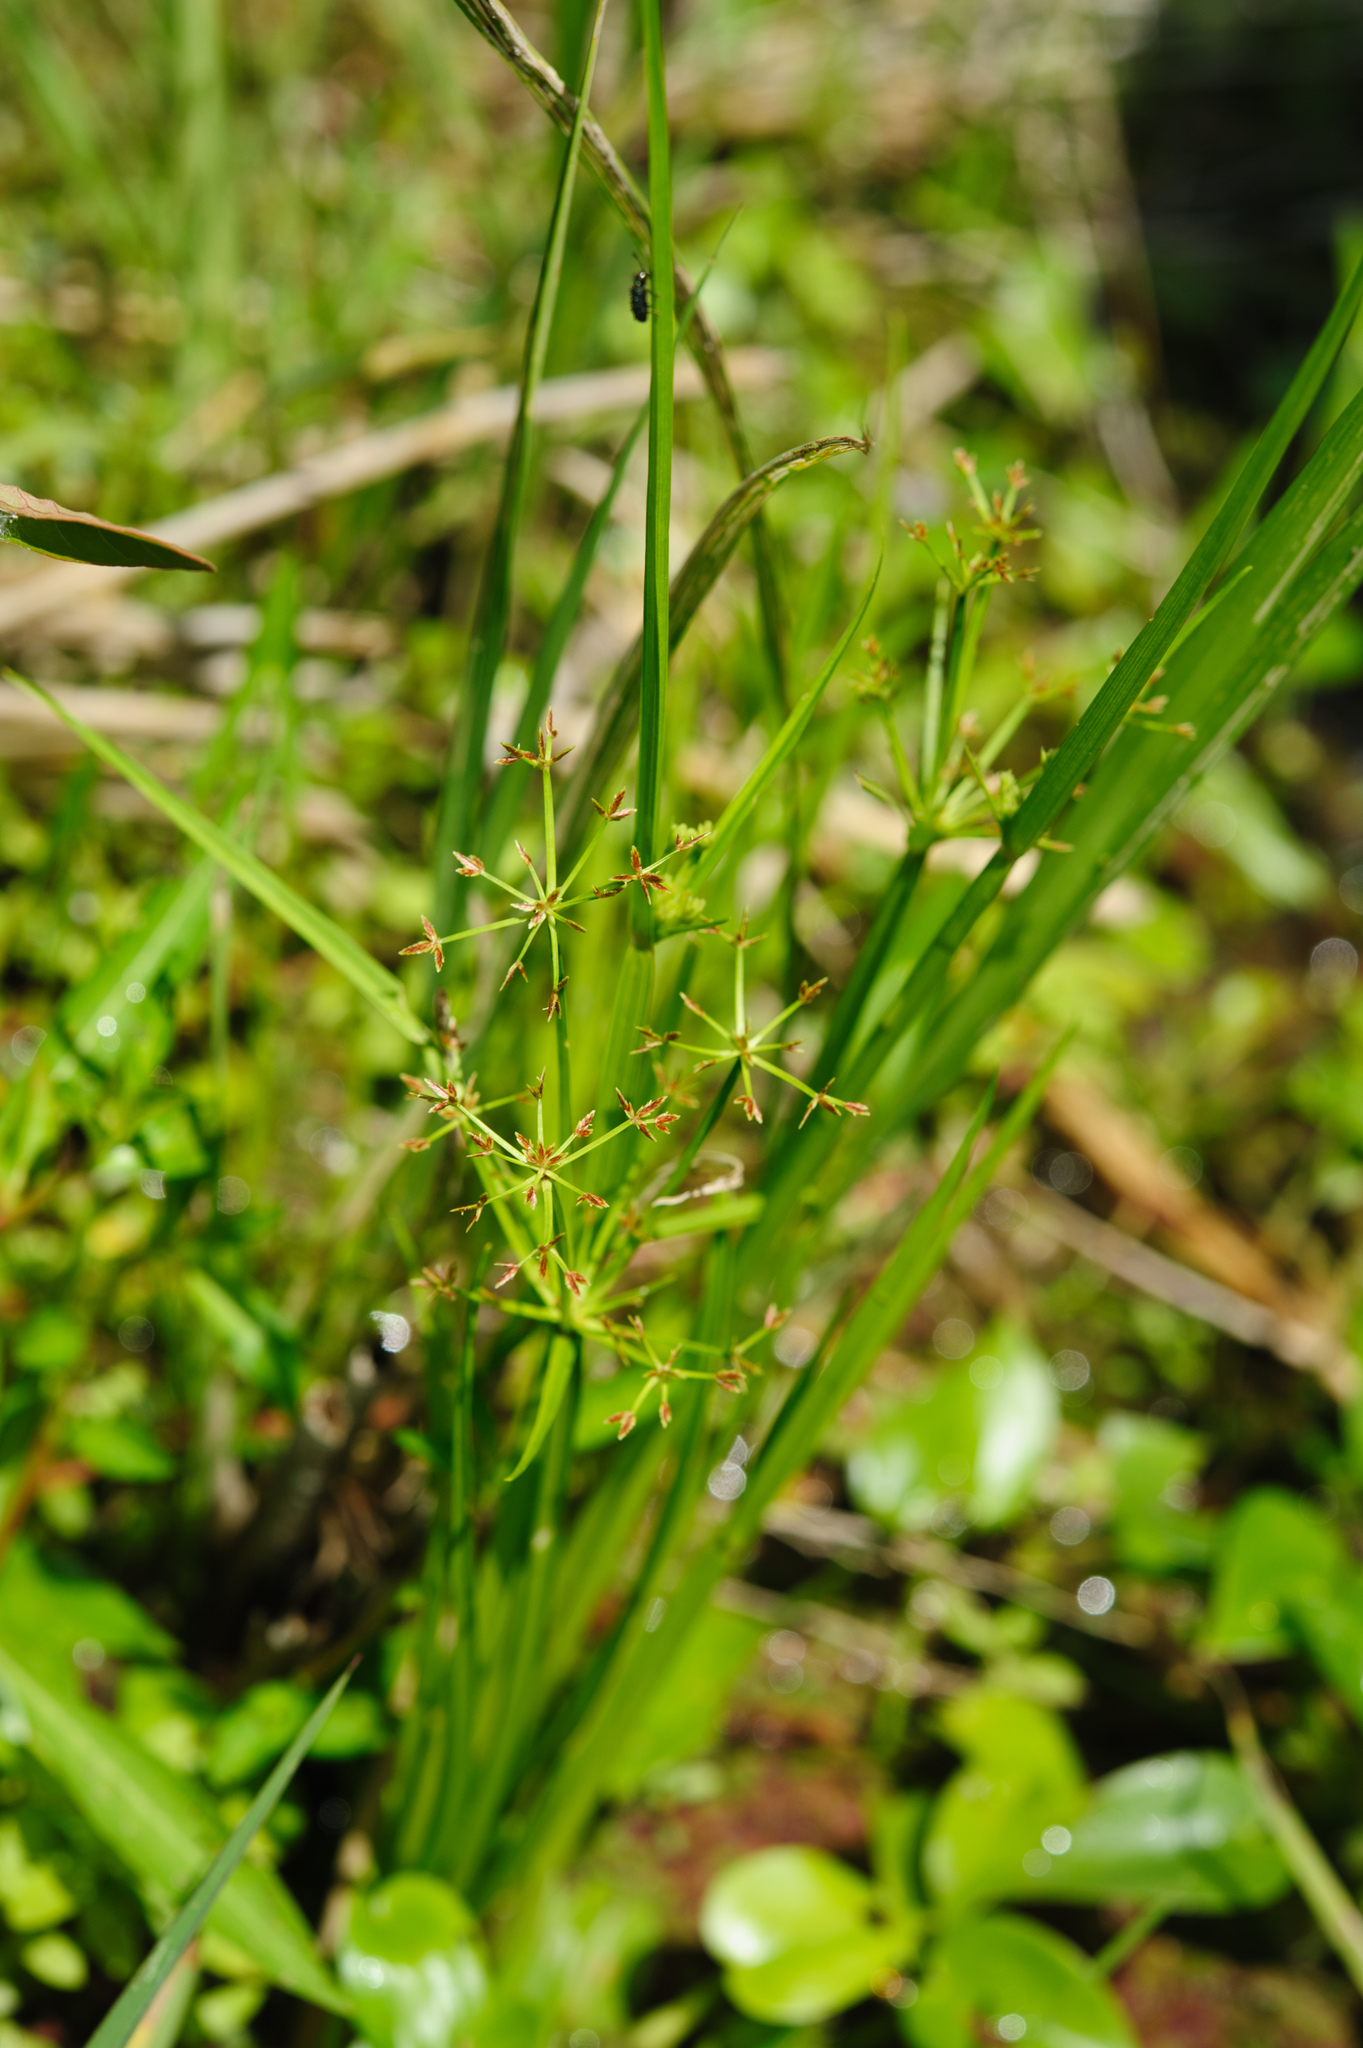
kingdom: Plantae
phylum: Tracheophyta
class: Liliopsida
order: Poales
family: Cyperaceae
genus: Cyperus
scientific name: Cyperus haspan
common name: Haspan flatsedge
